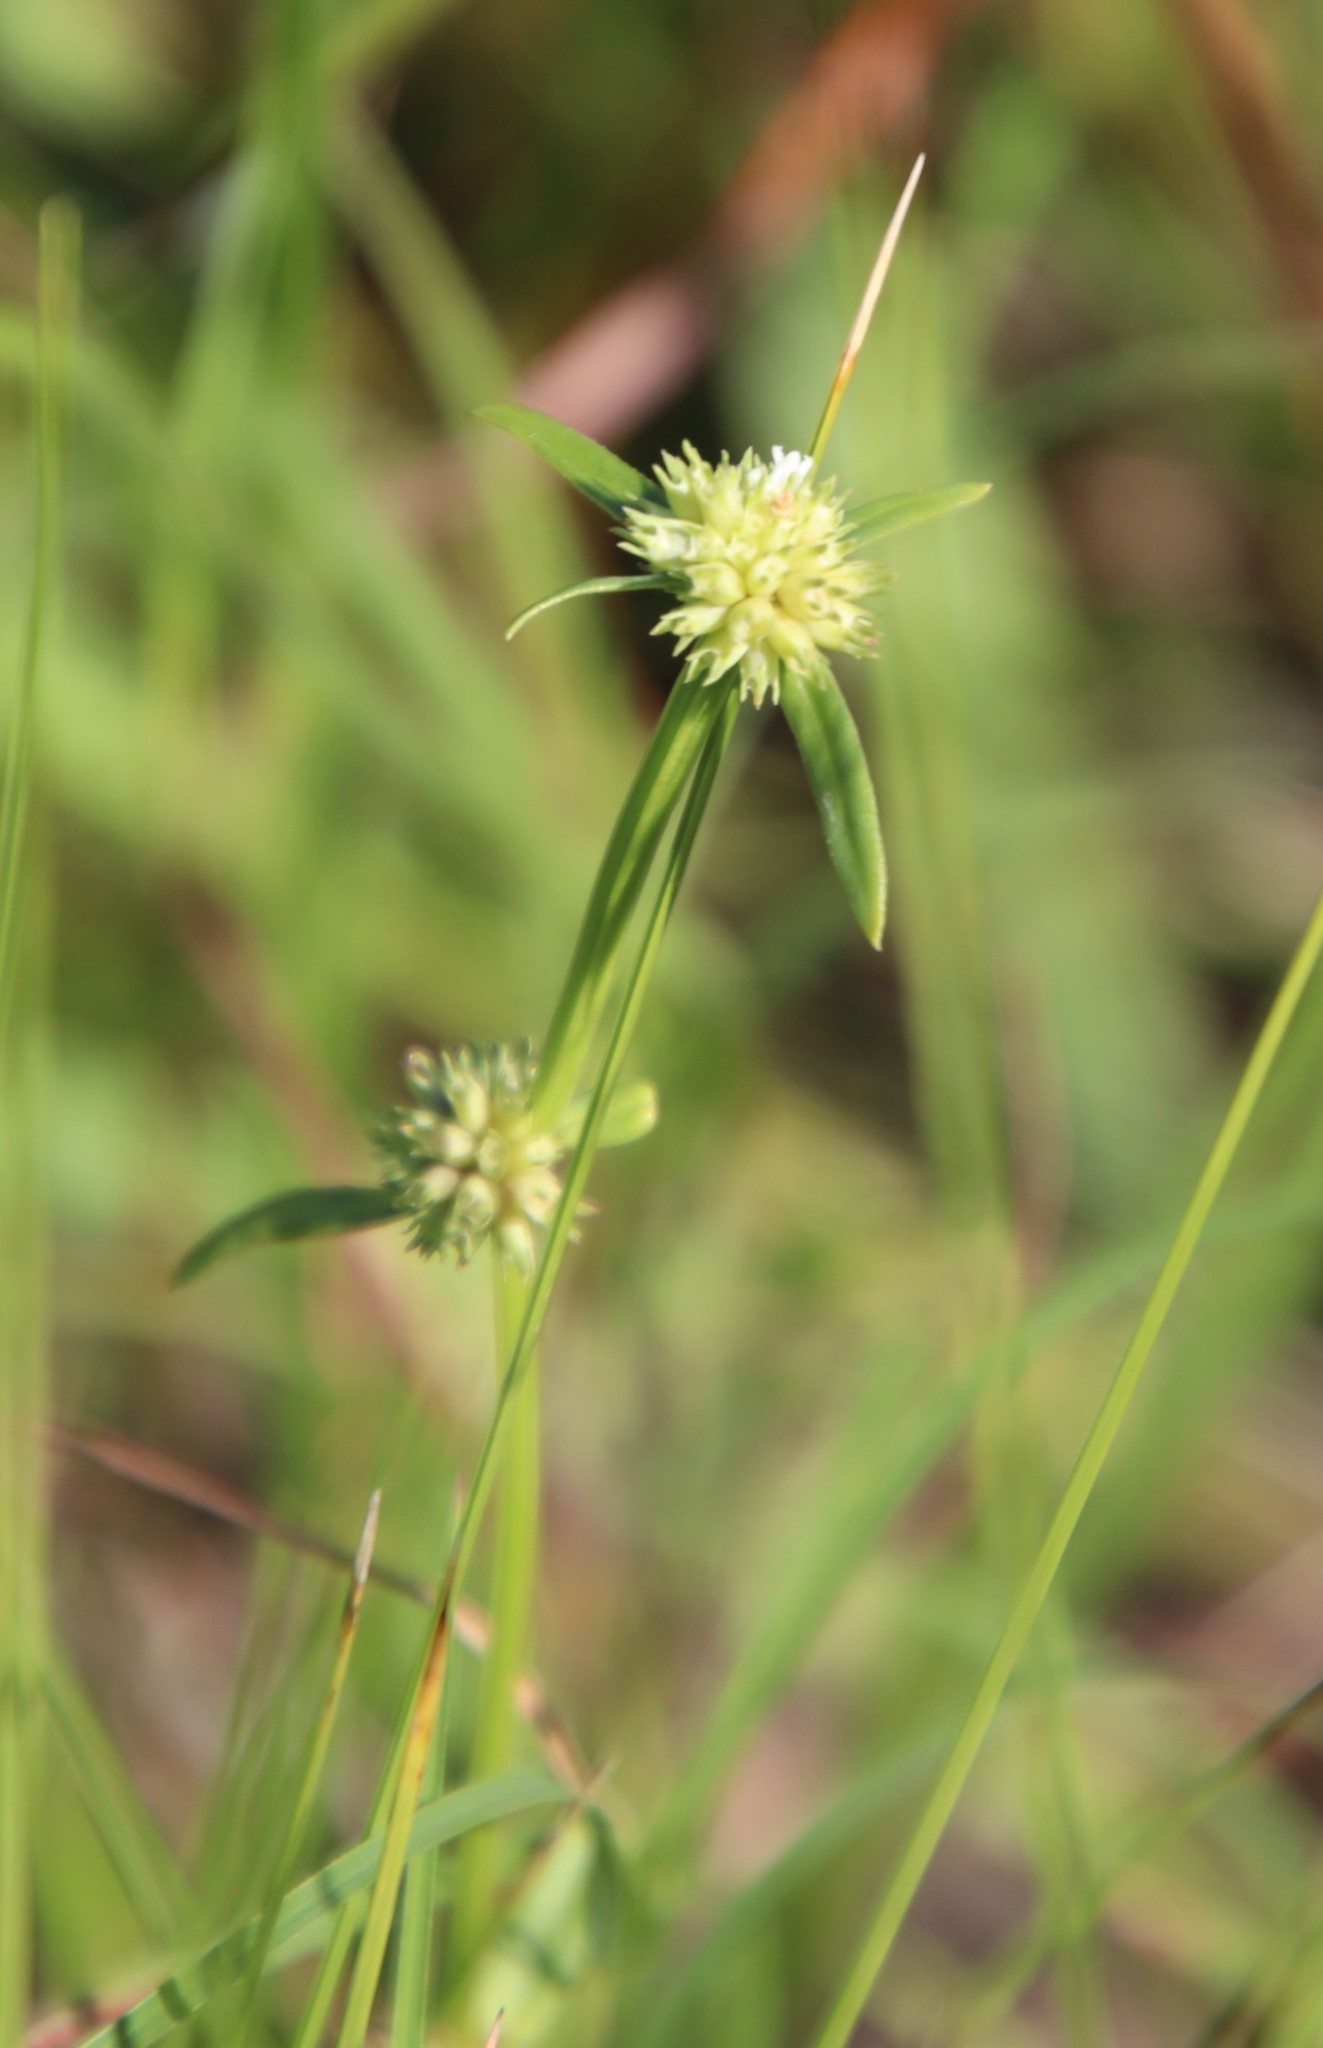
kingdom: Plantae
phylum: Tracheophyta
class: Magnoliopsida
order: Gentianales
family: Rubiaceae
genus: Spermacoce
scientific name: Spermacoce natalensis
